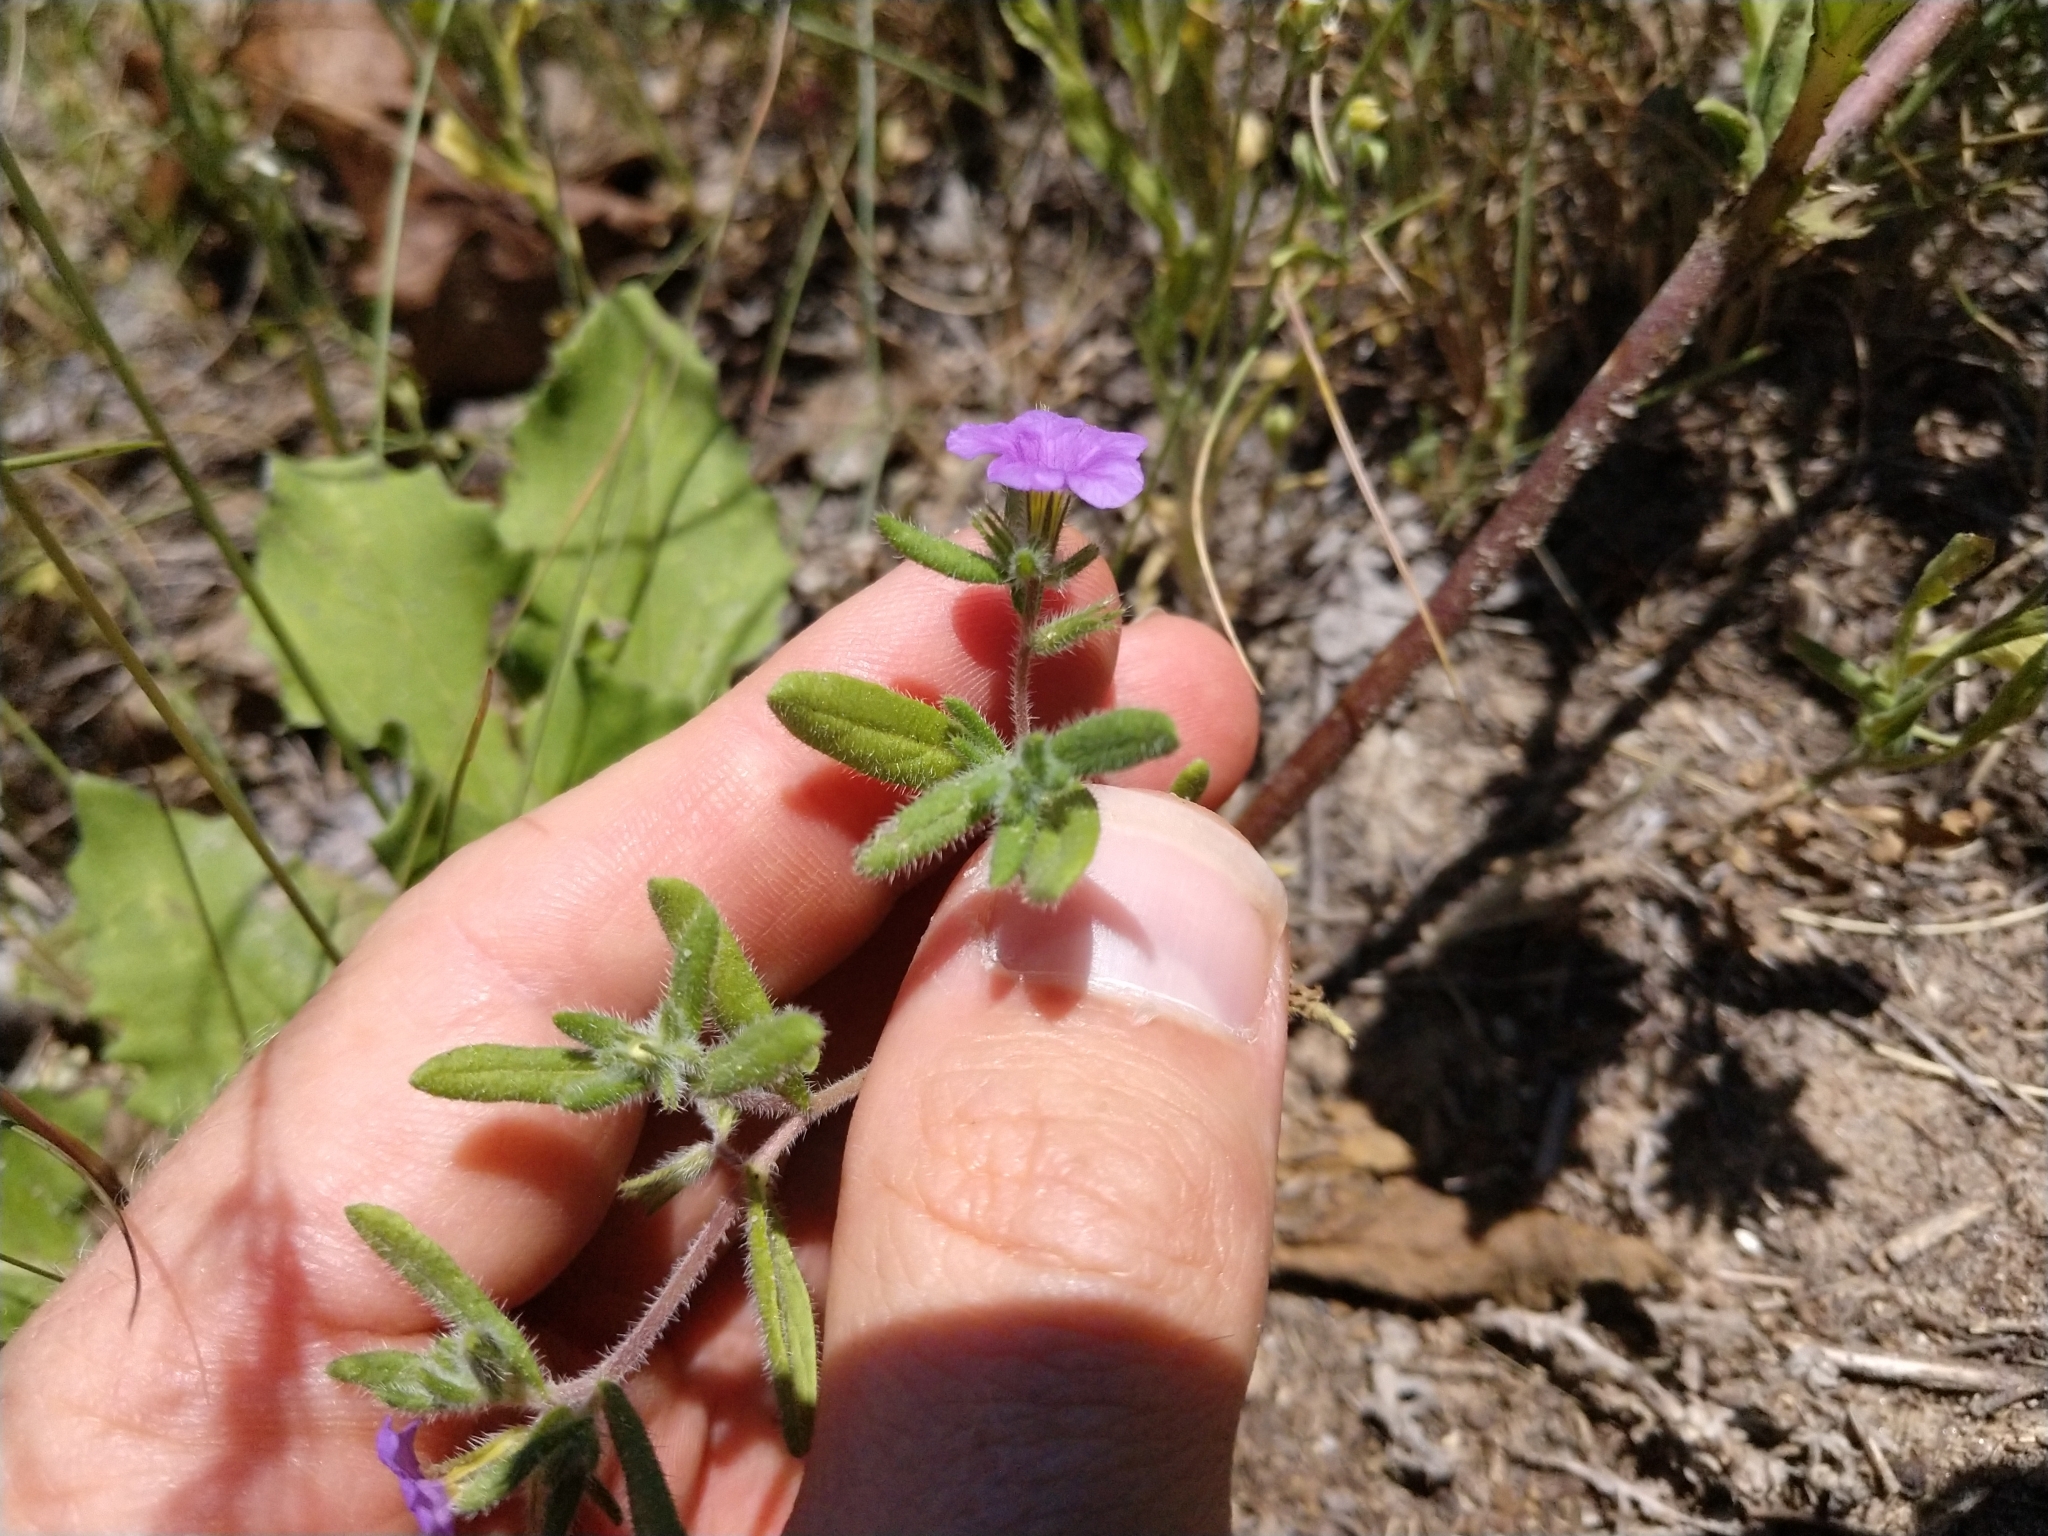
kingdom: Plantae
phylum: Tracheophyta
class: Magnoliopsida
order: Boraginales
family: Namaceae
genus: Nama
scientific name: Nama hispida
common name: Bristly nama
